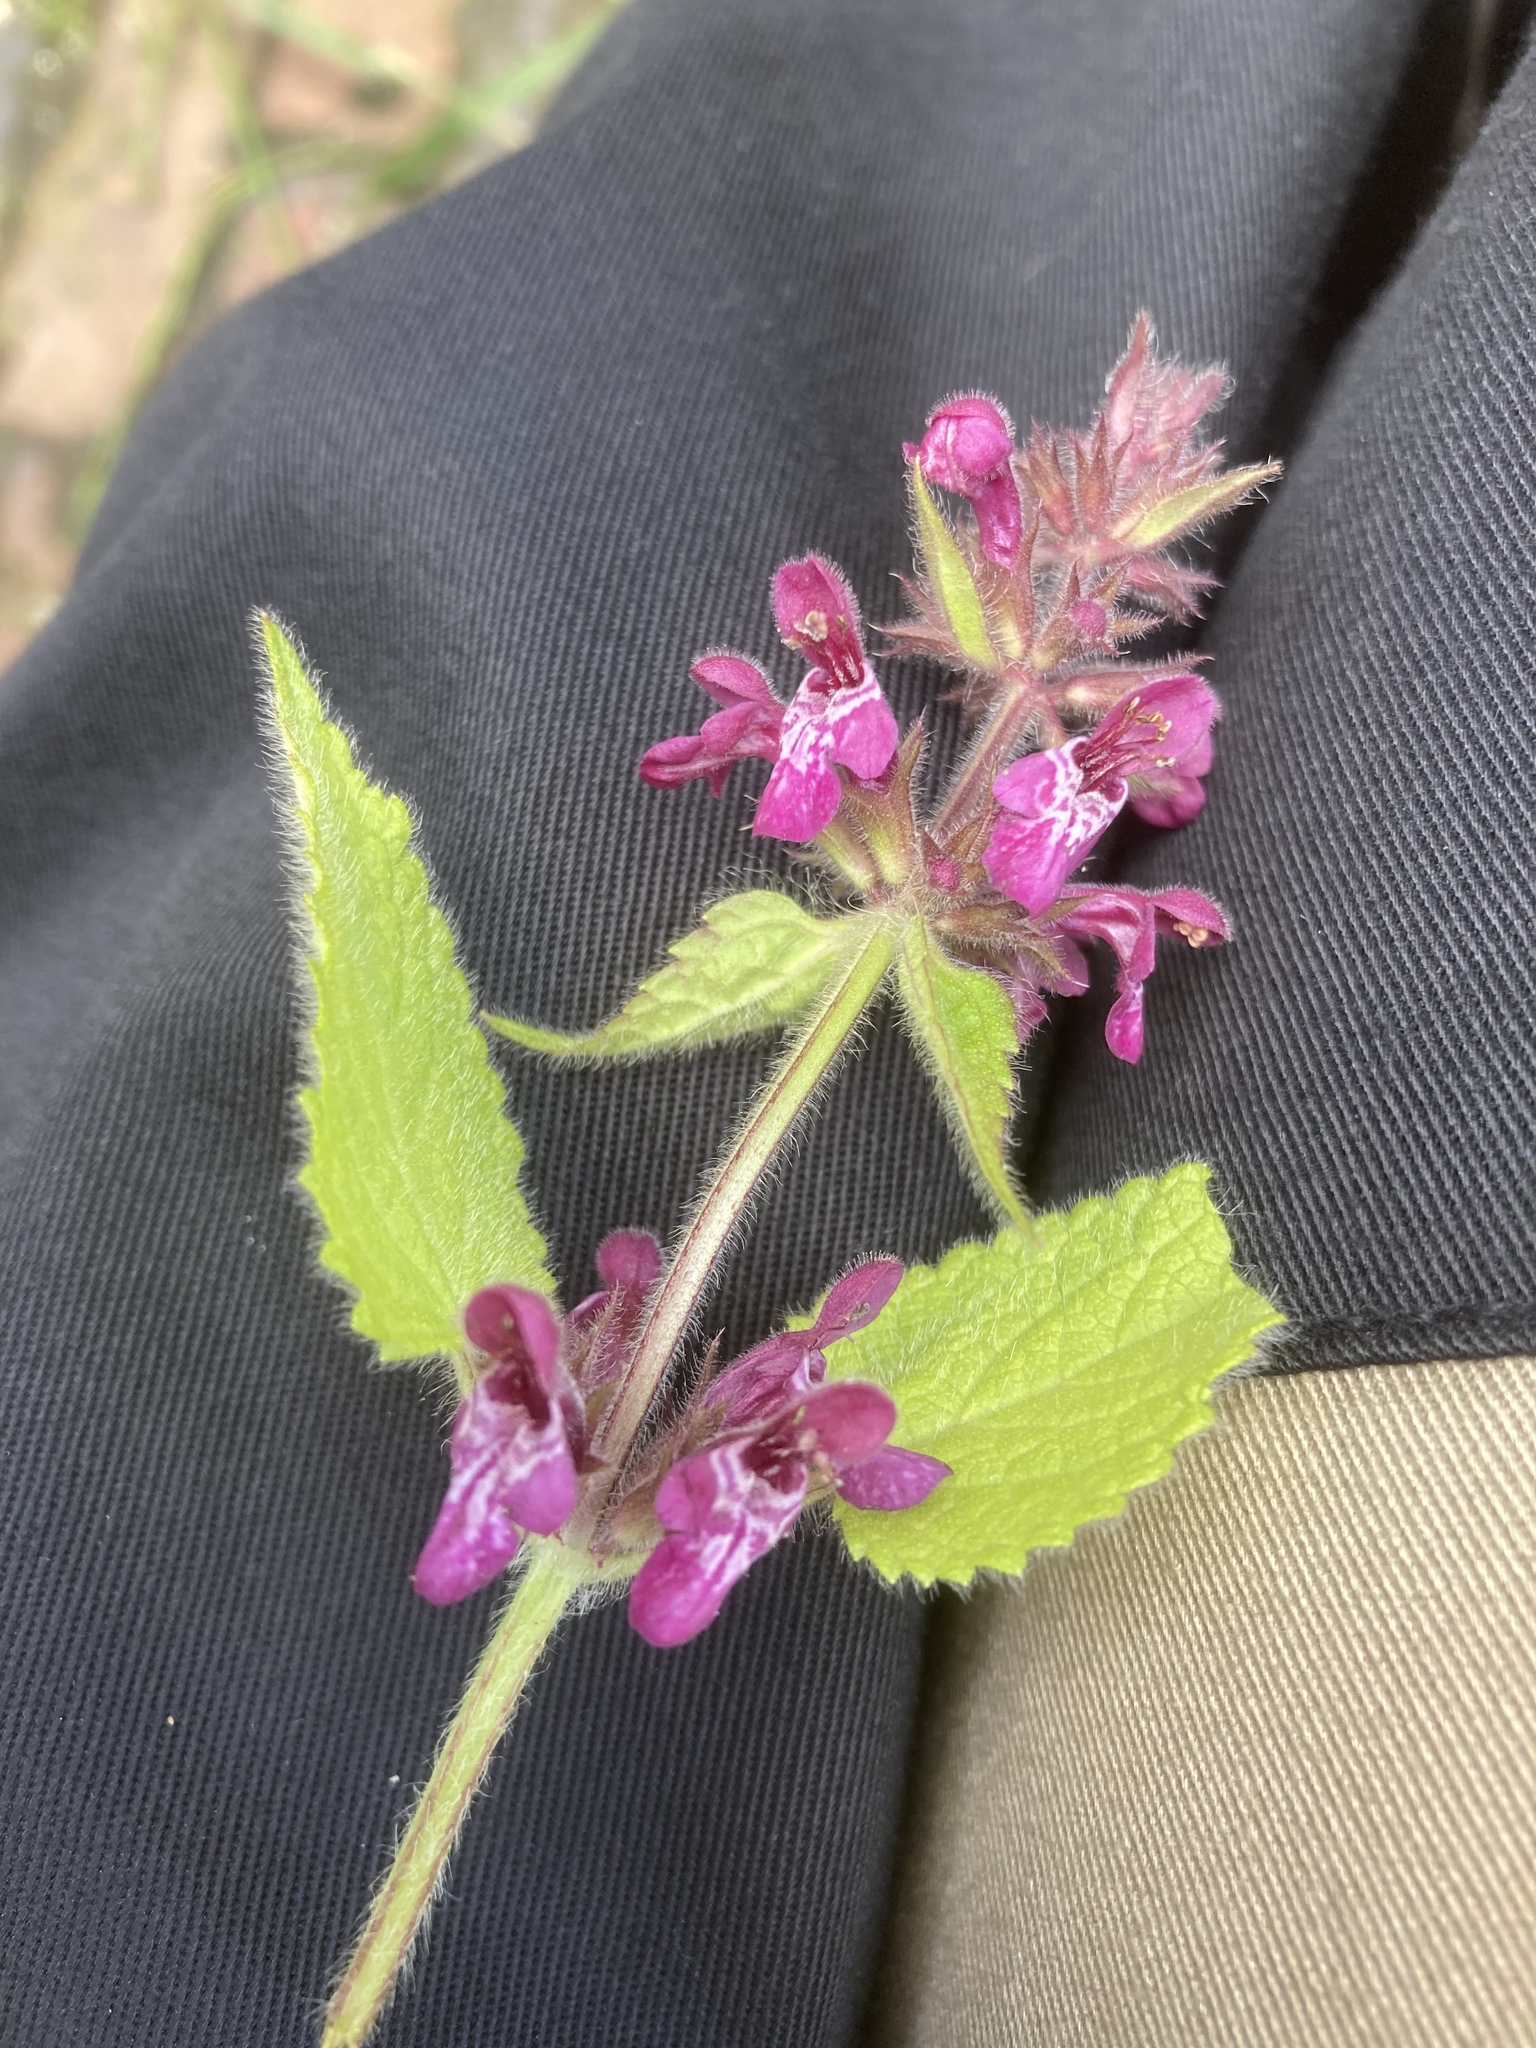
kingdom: Plantae
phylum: Tracheophyta
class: Magnoliopsida
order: Lamiales
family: Lamiaceae
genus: Stachys
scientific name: Stachys sylvatica
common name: Hedge woundwort
